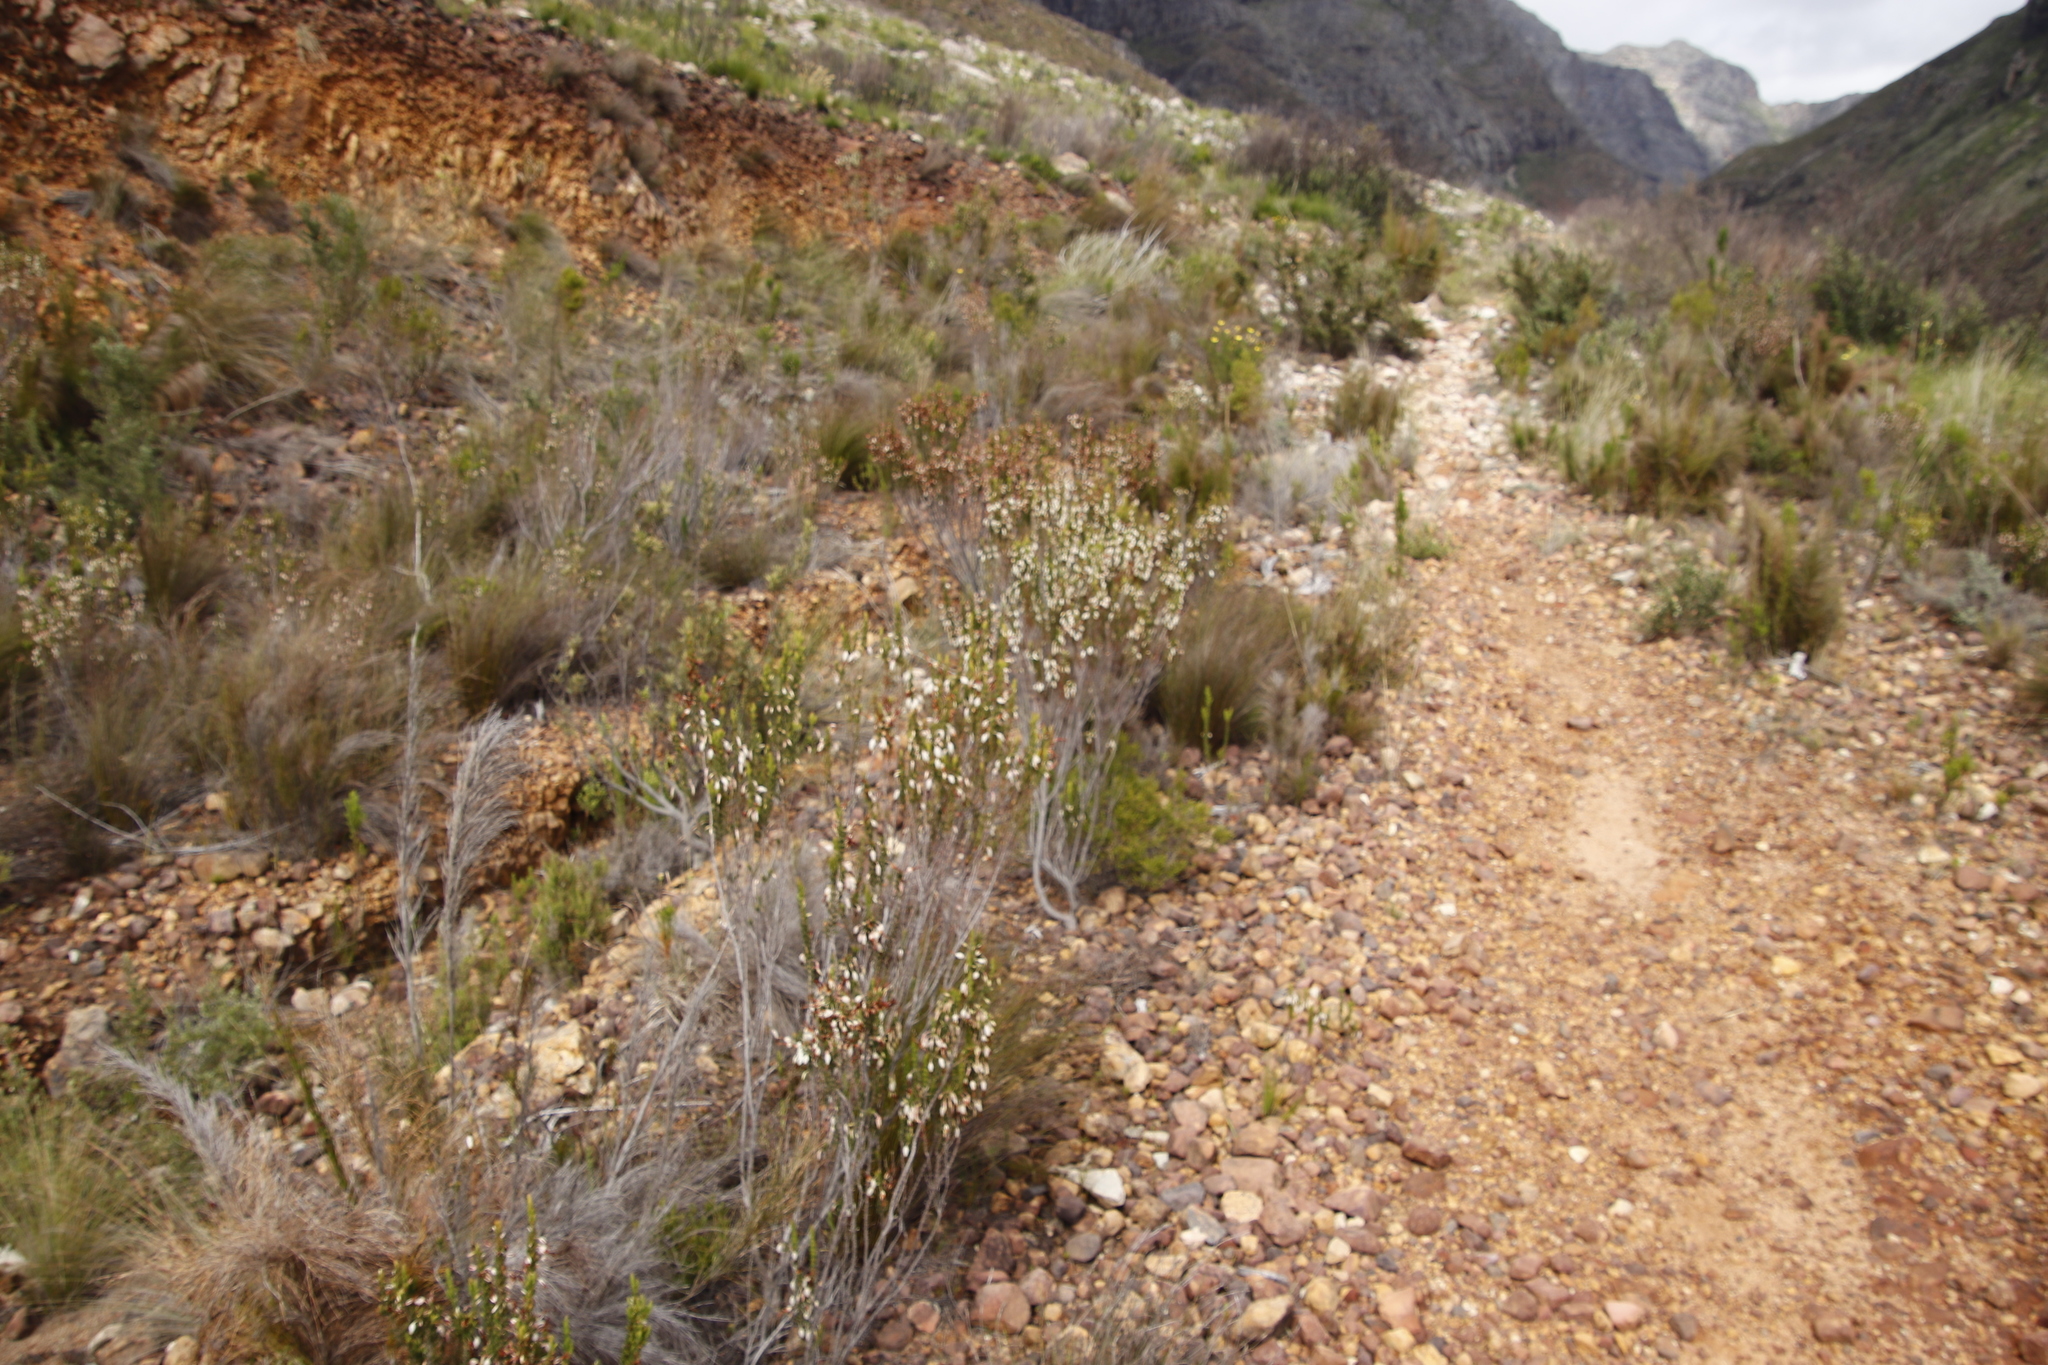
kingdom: Plantae
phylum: Tracheophyta
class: Magnoliopsida
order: Ericales
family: Ericaceae
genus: Erica
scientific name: Erica plukenetii
